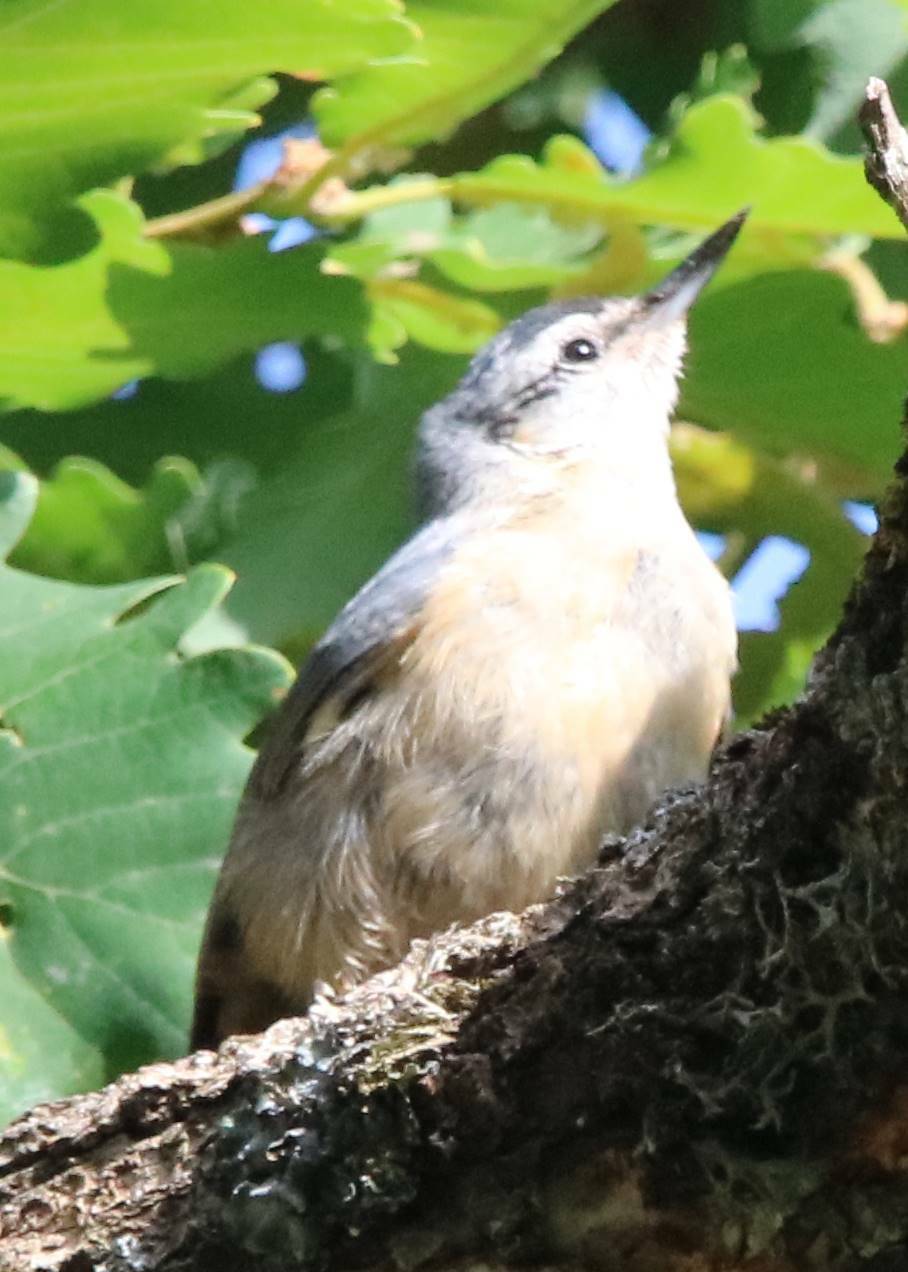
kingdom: Animalia
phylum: Chordata
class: Aves
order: Passeriformes
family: Sittidae
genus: Sitta
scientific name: Sitta ledanti
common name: Algerian nuthatch
